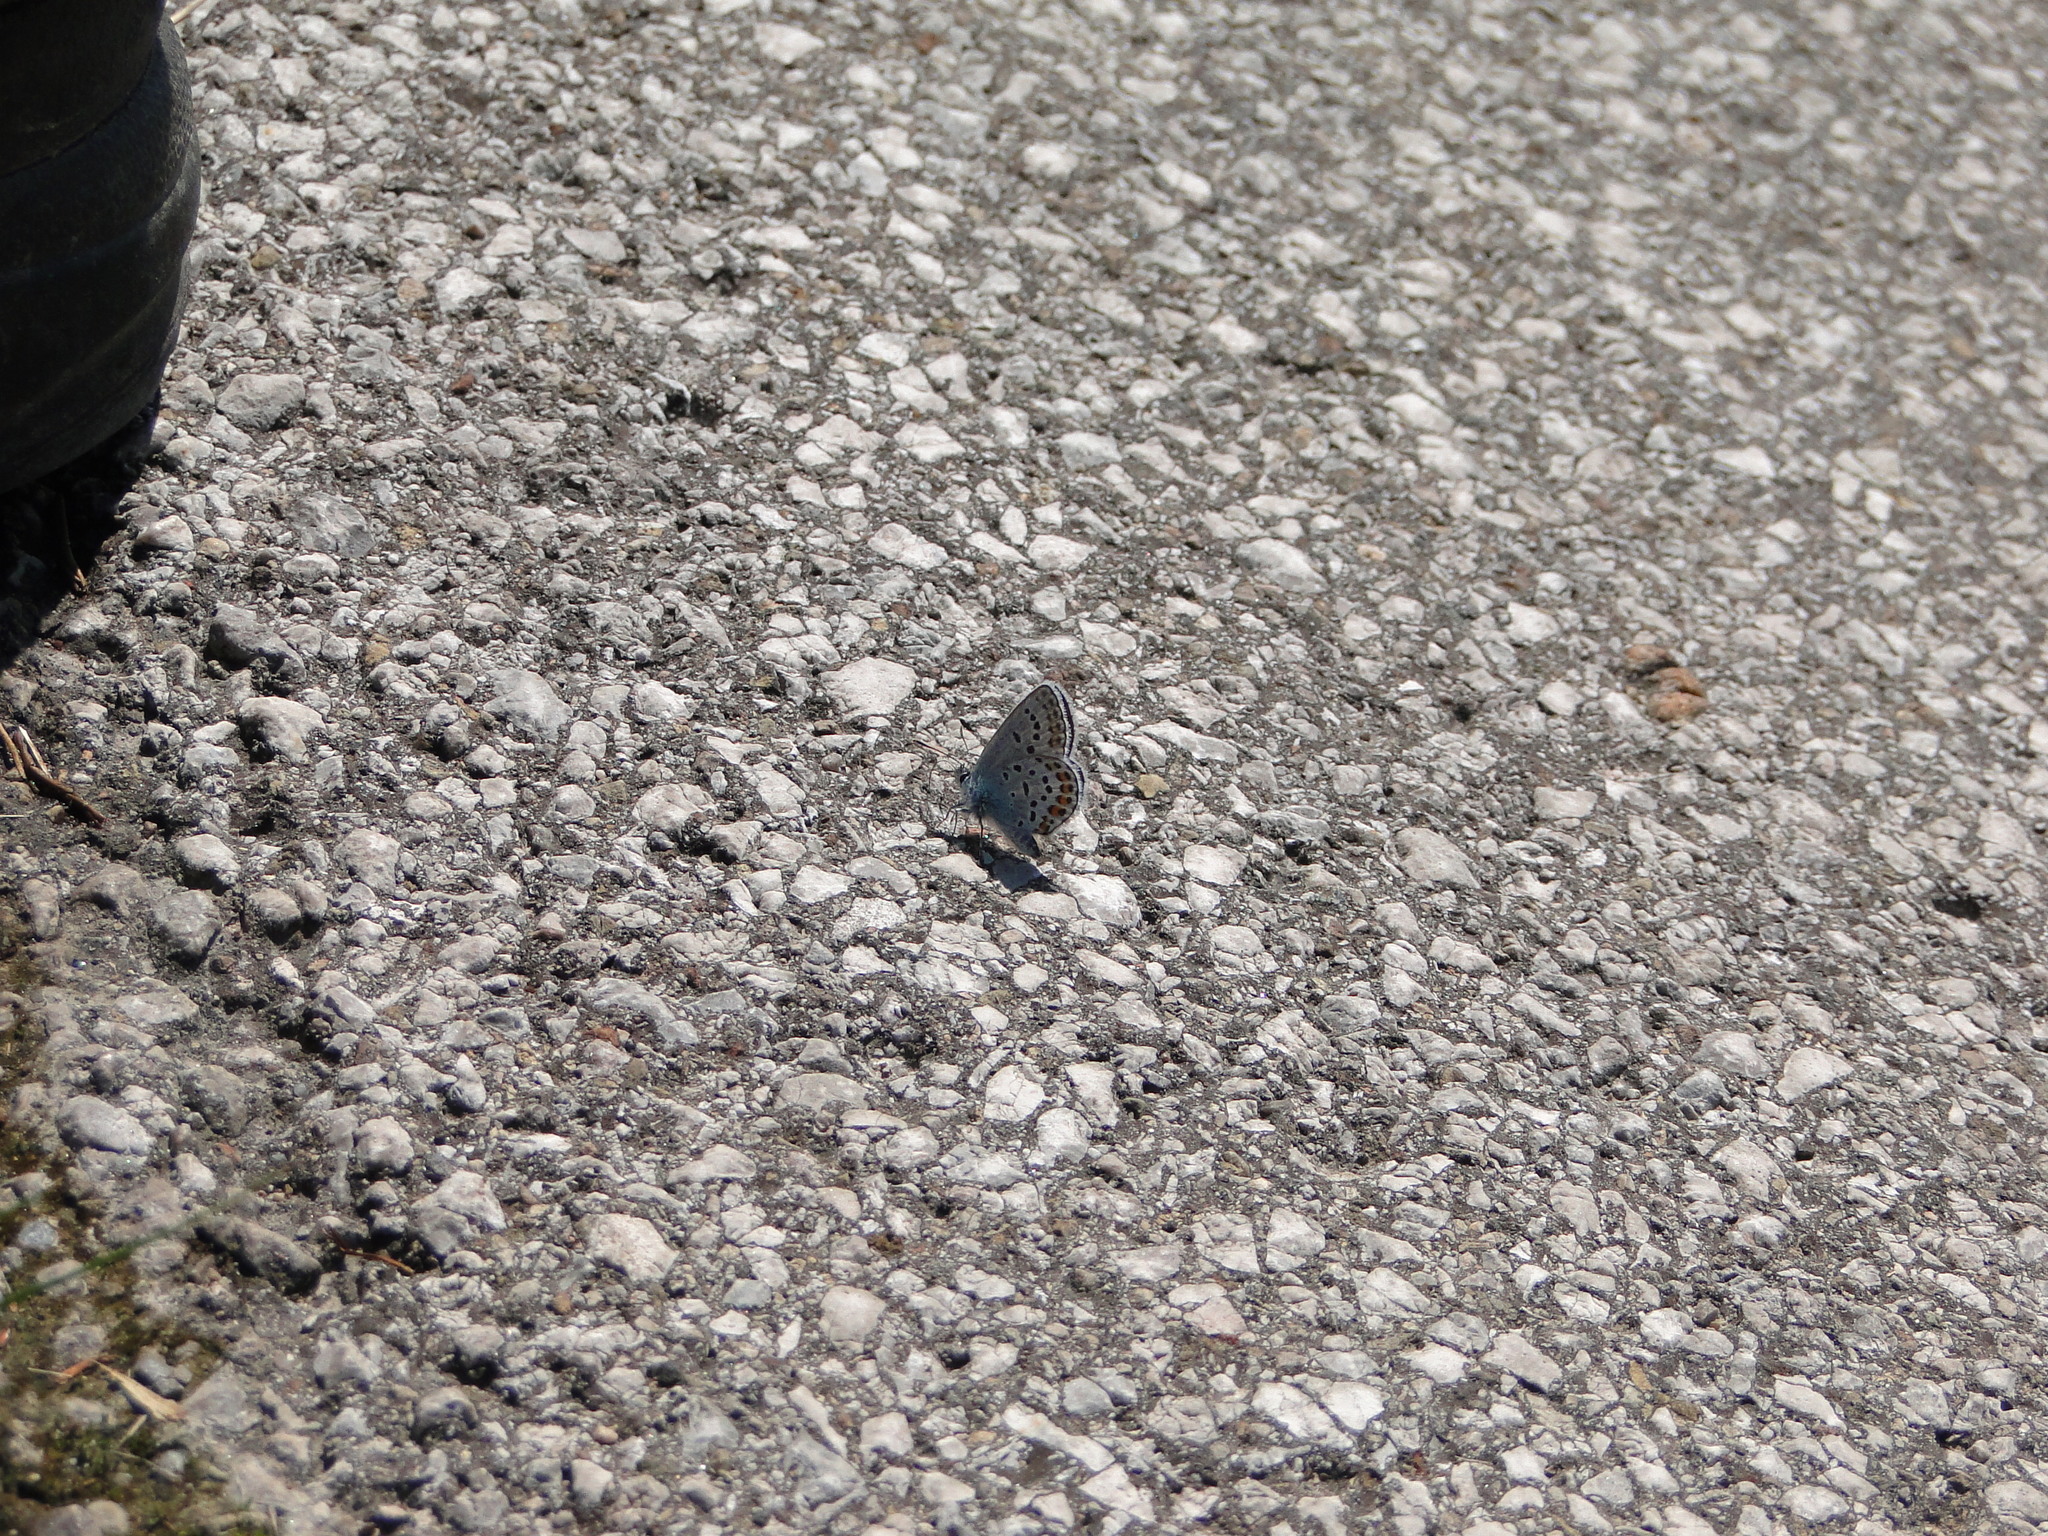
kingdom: Animalia
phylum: Arthropoda
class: Insecta
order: Lepidoptera
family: Lycaenidae
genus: Plebejus
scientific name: Plebejus argus
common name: Silver-studded blue
